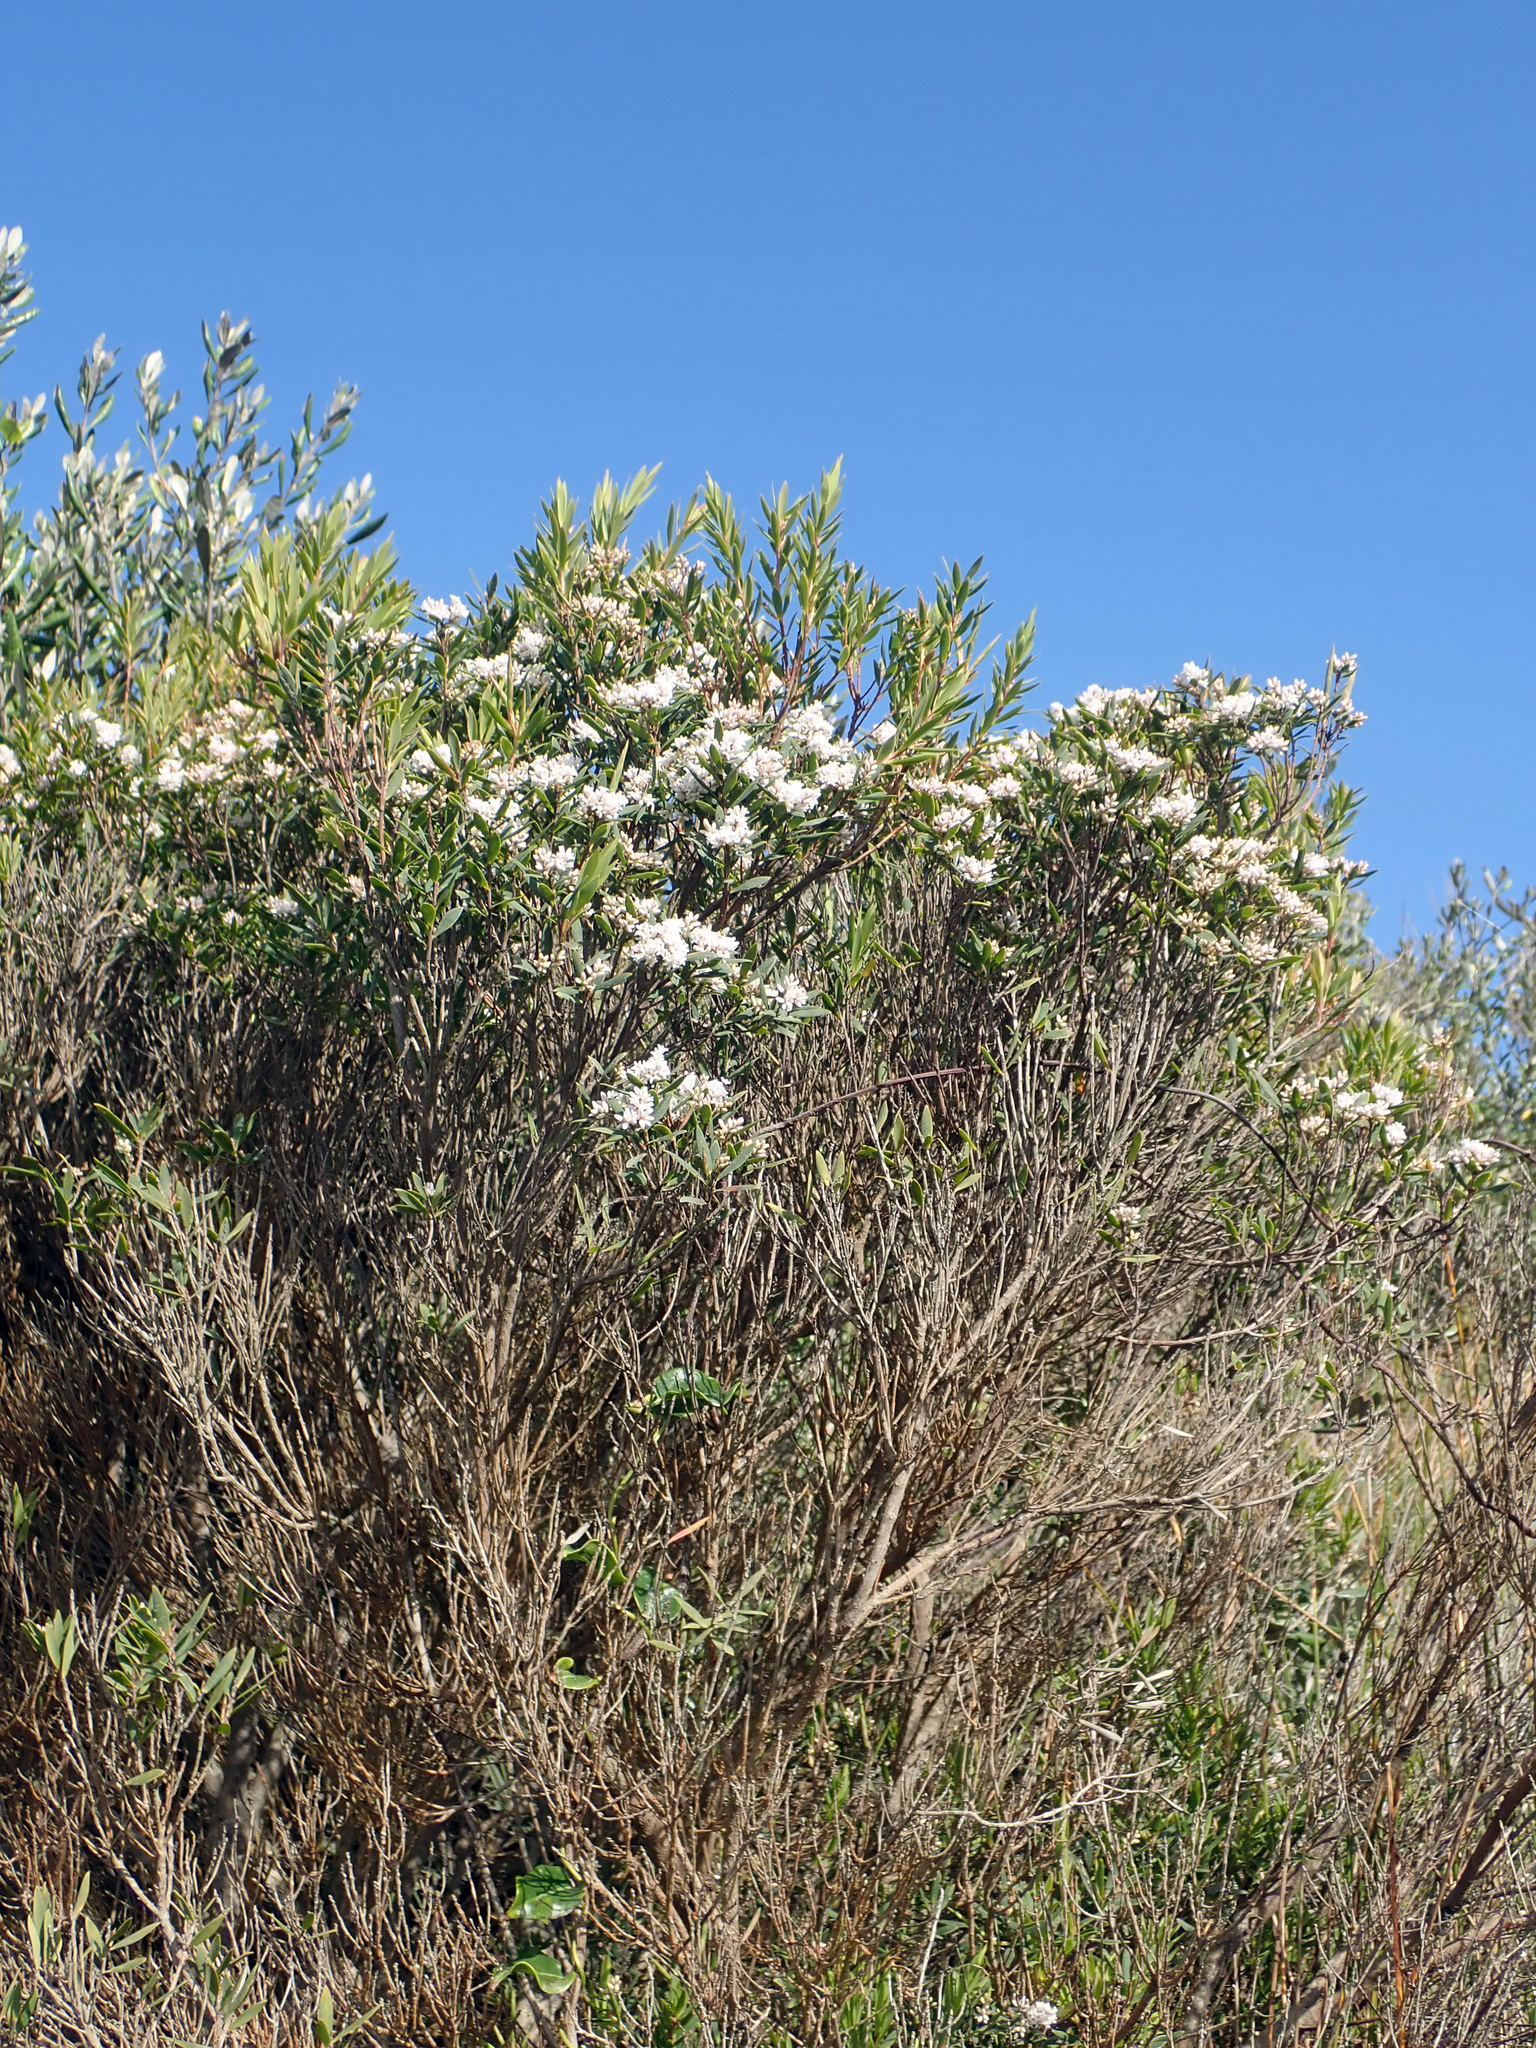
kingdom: Plantae
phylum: Tracheophyta
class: Magnoliopsida
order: Ericales
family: Ericaceae
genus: Leptecophylla
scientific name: Leptecophylla parvifolia
